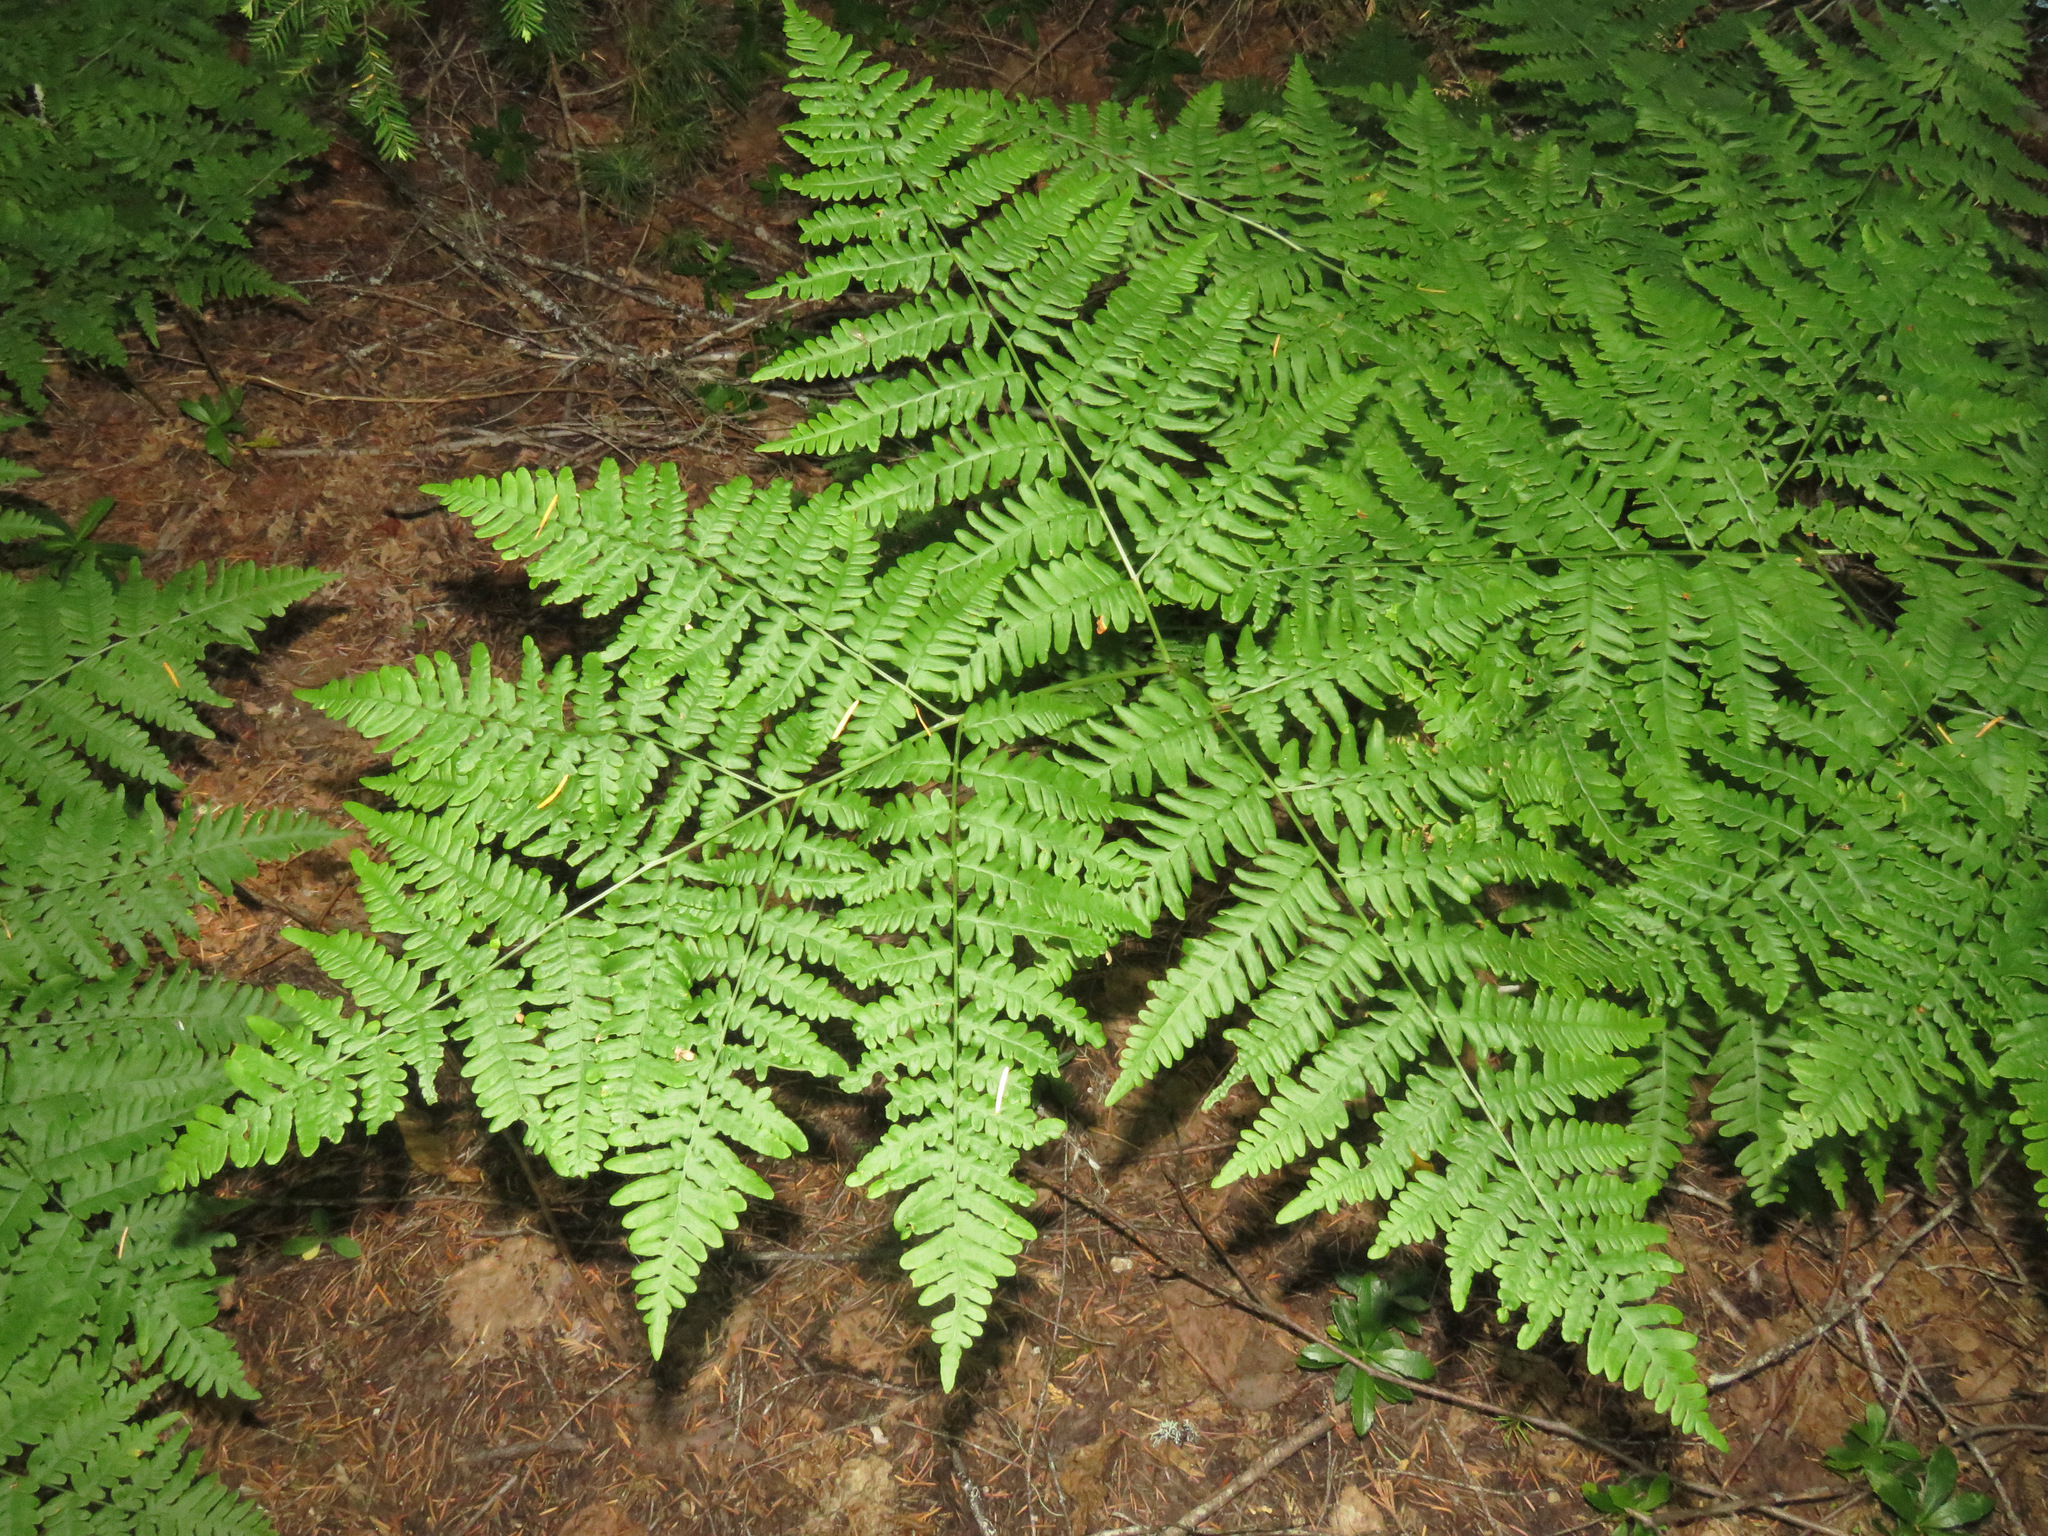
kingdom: Plantae
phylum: Tracheophyta
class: Polypodiopsida
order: Polypodiales
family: Dennstaedtiaceae
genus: Pteridium
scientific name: Pteridium aquilinum
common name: Bracken
